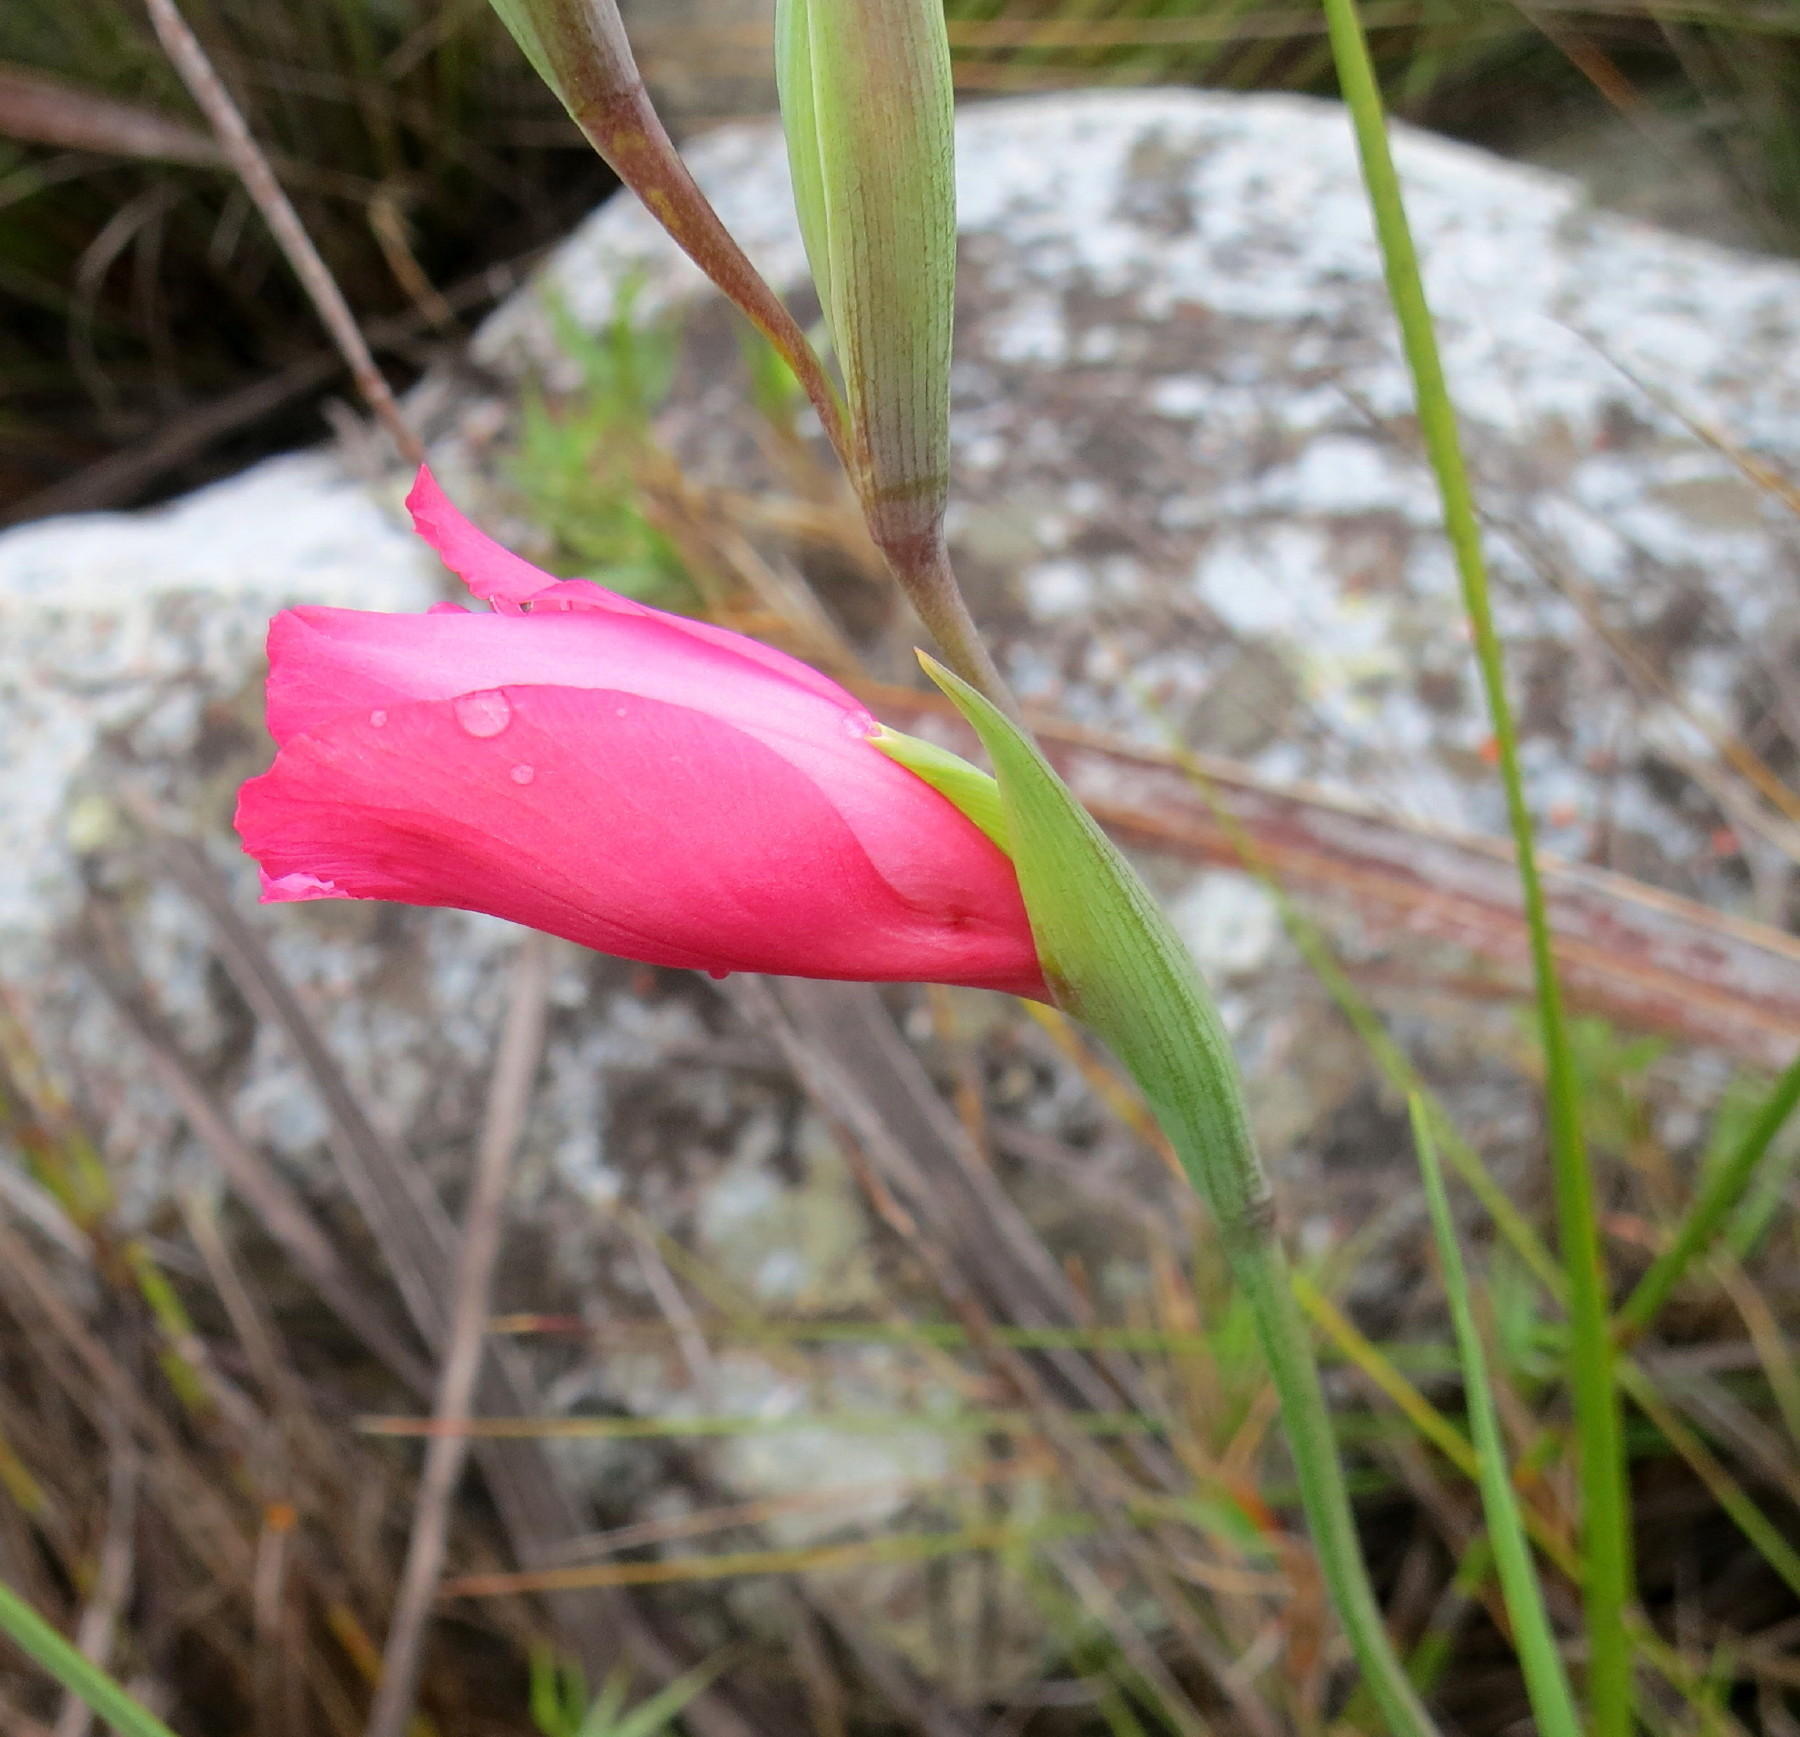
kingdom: Plantae
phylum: Tracheophyta
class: Liliopsida
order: Asparagales
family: Iridaceae
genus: Gladiolus
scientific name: Gladiolus crispulatus
